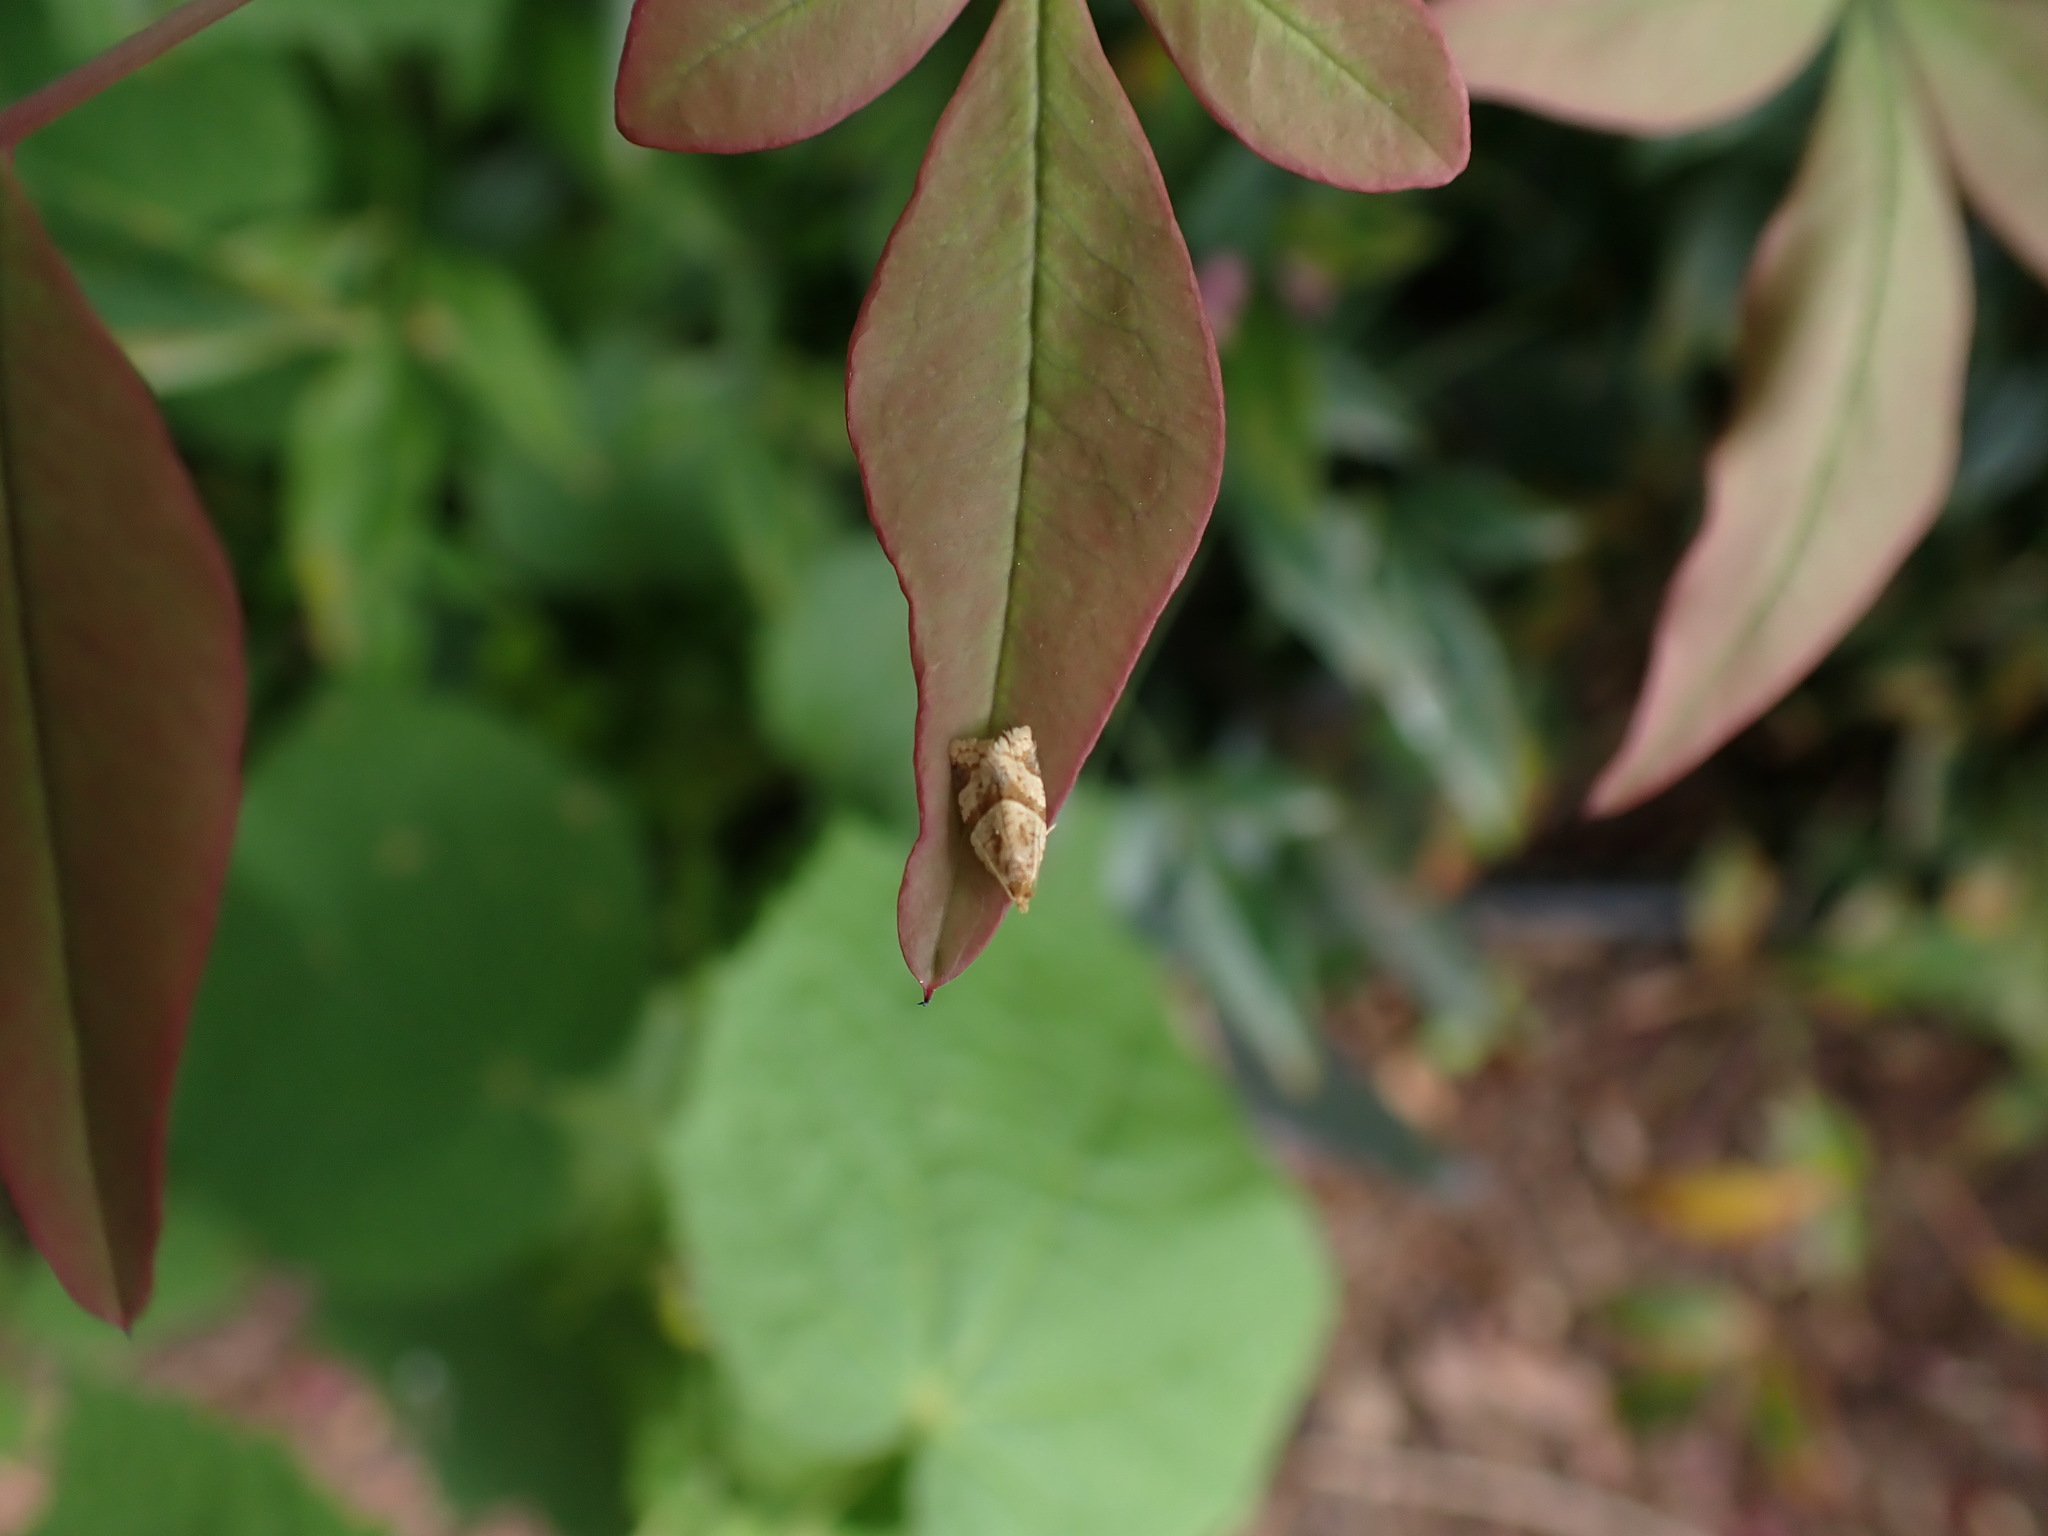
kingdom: Animalia
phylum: Arthropoda
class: Insecta
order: Lepidoptera
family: Tortricidae
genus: Clepsis
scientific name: Clepsis peritana
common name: Garden tortrix
